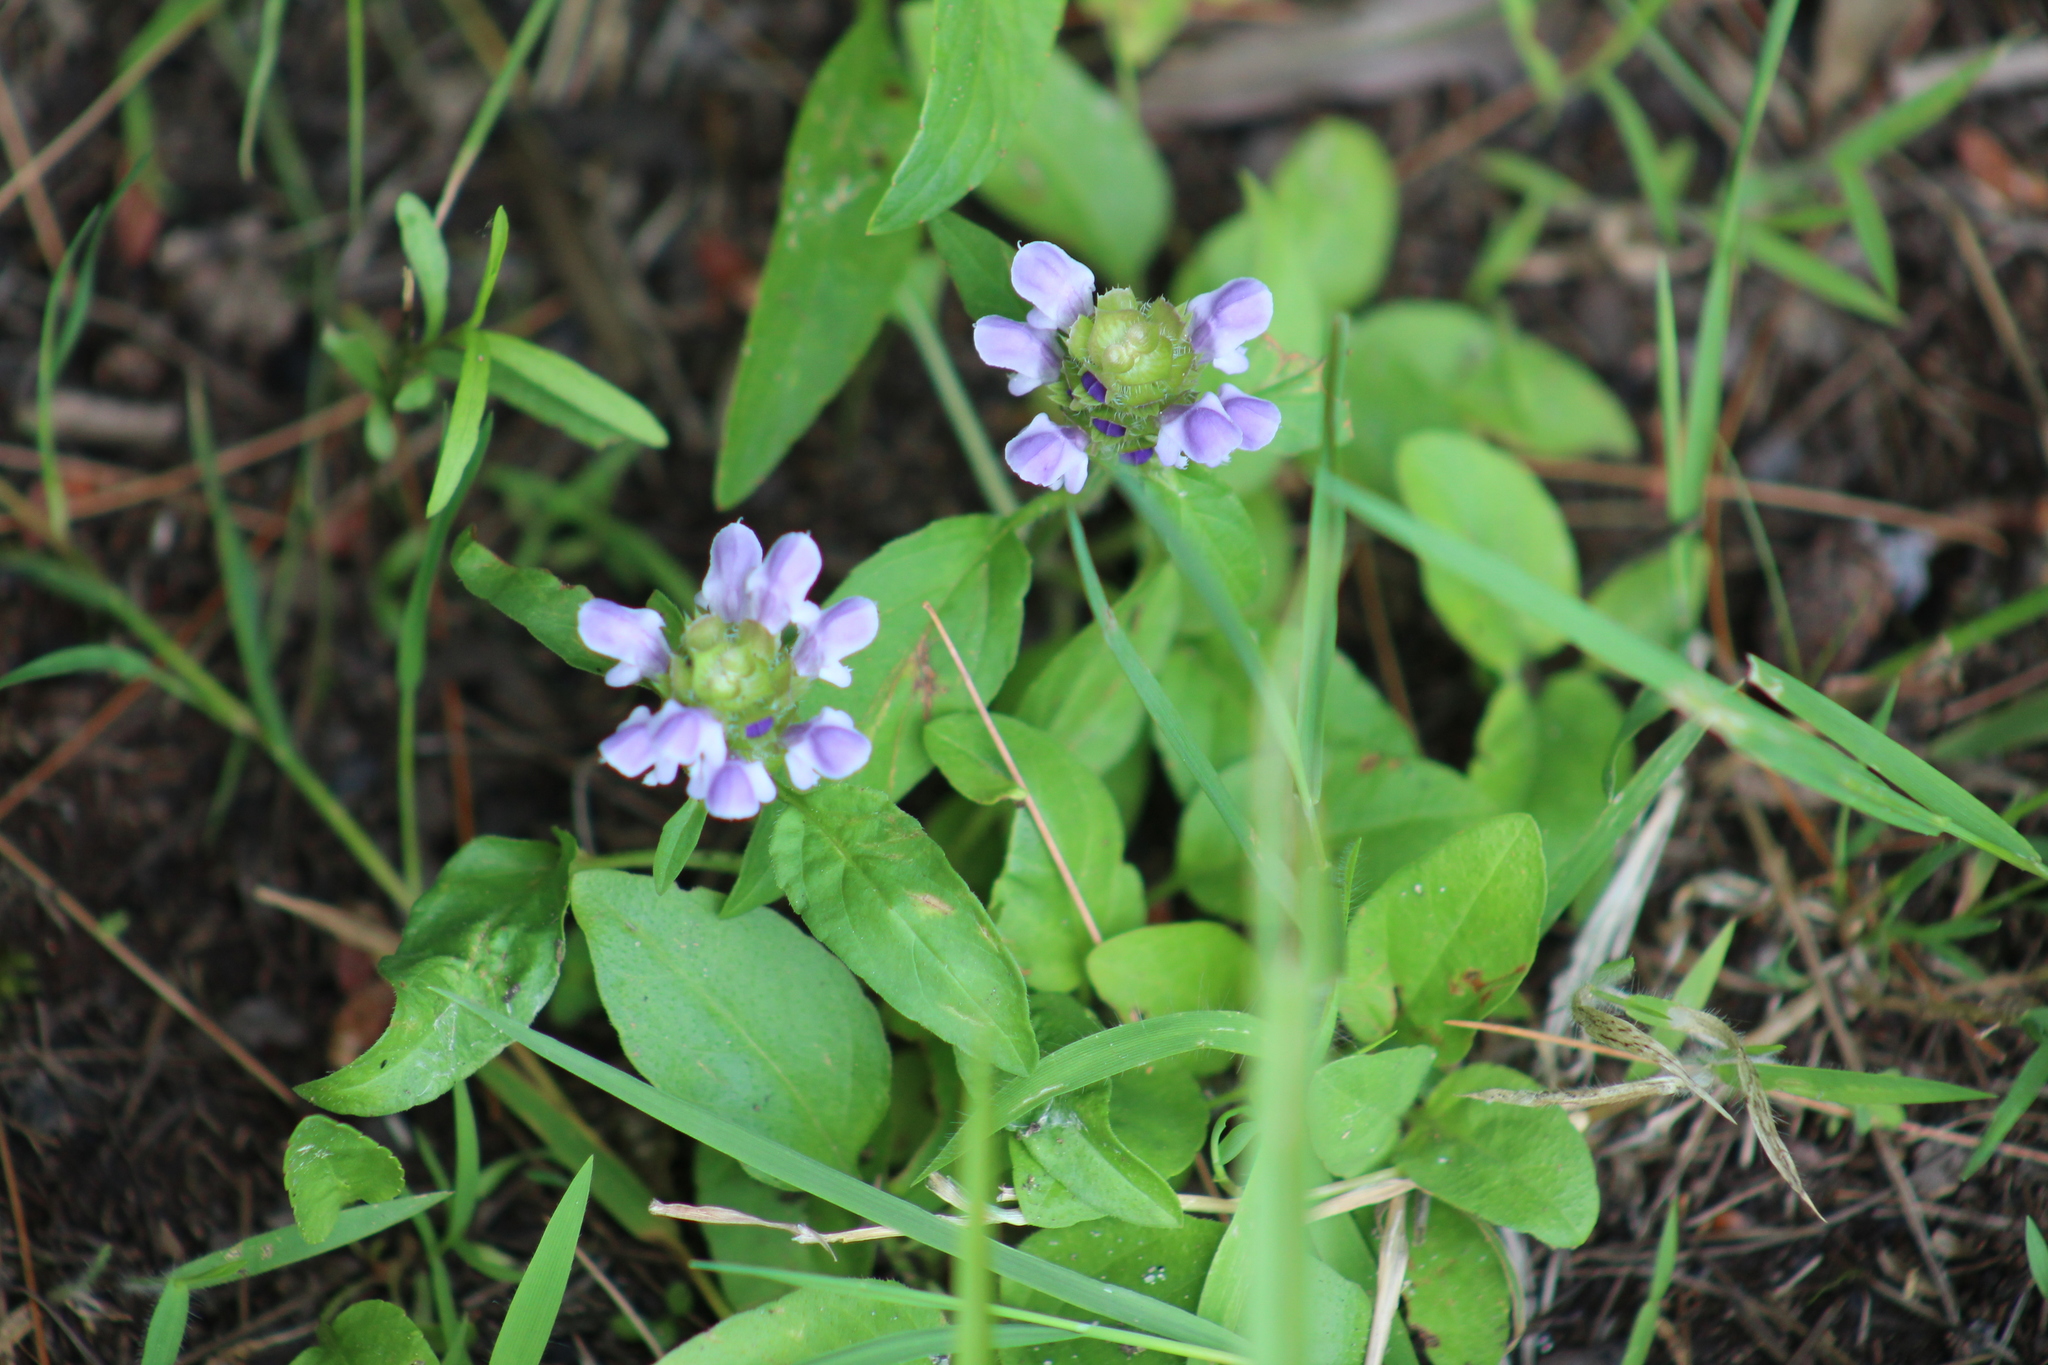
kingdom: Plantae
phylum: Tracheophyta
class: Magnoliopsida
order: Lamiales
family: Lamiaceae
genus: Prunella
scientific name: Prunella vulgaris
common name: Heal-all
